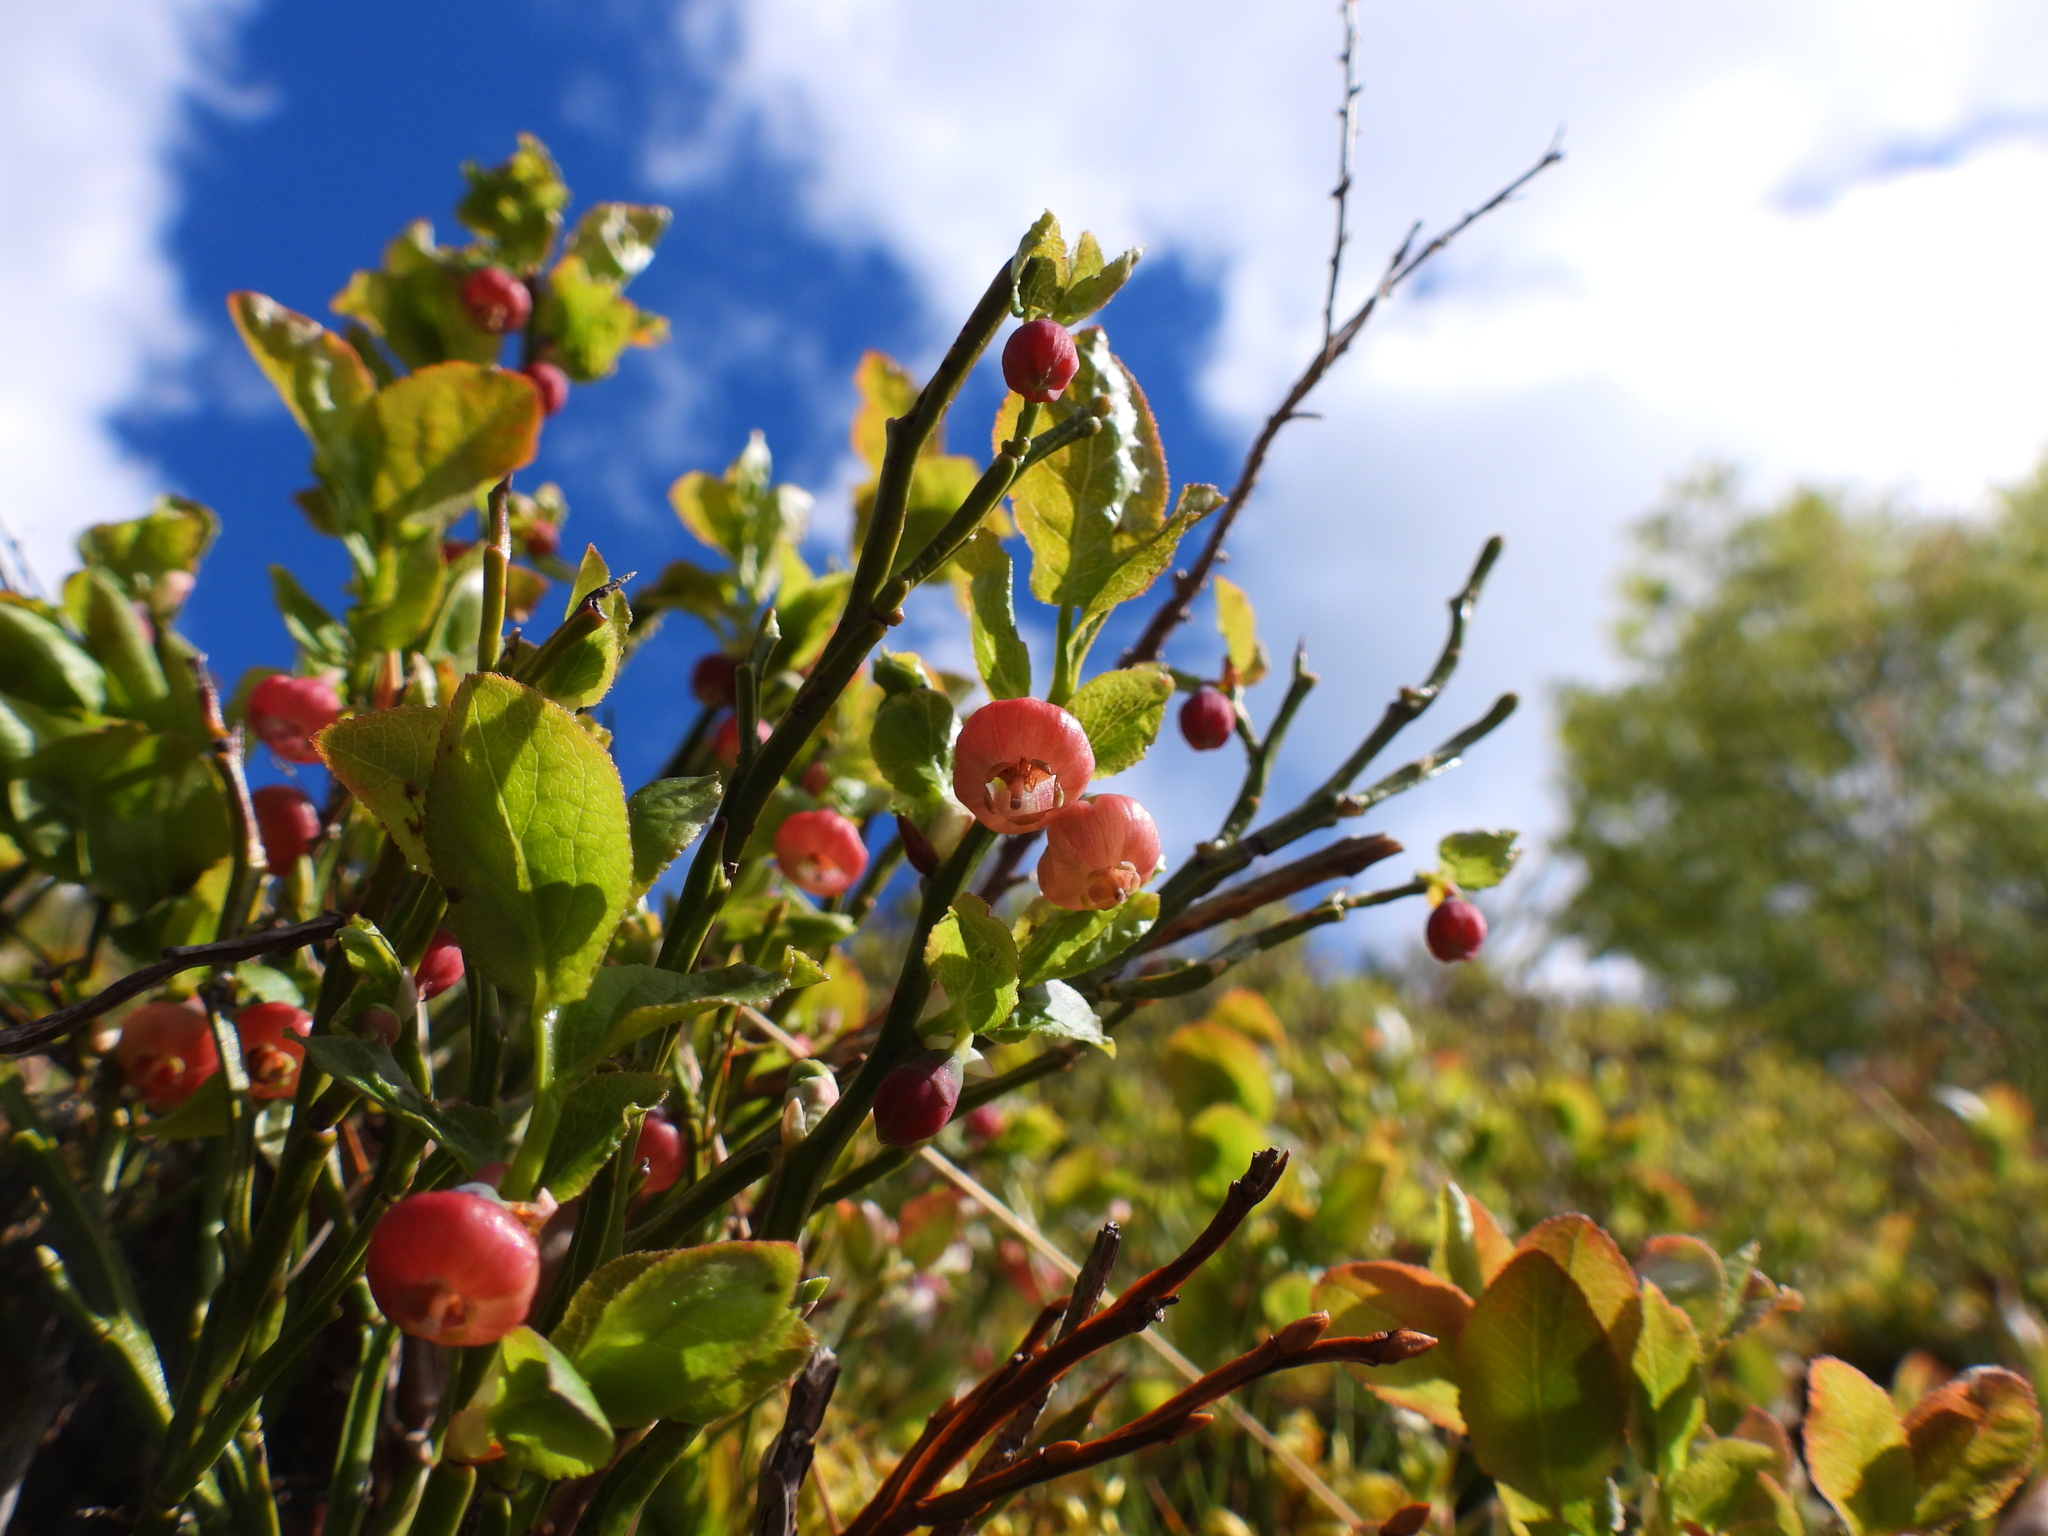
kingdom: Plantae
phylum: Tracheophyta
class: Magnoliopsida
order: Ericales
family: Ericaceae
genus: Vaccinium
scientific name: Vaccinium myrtillus
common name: Bilberry
